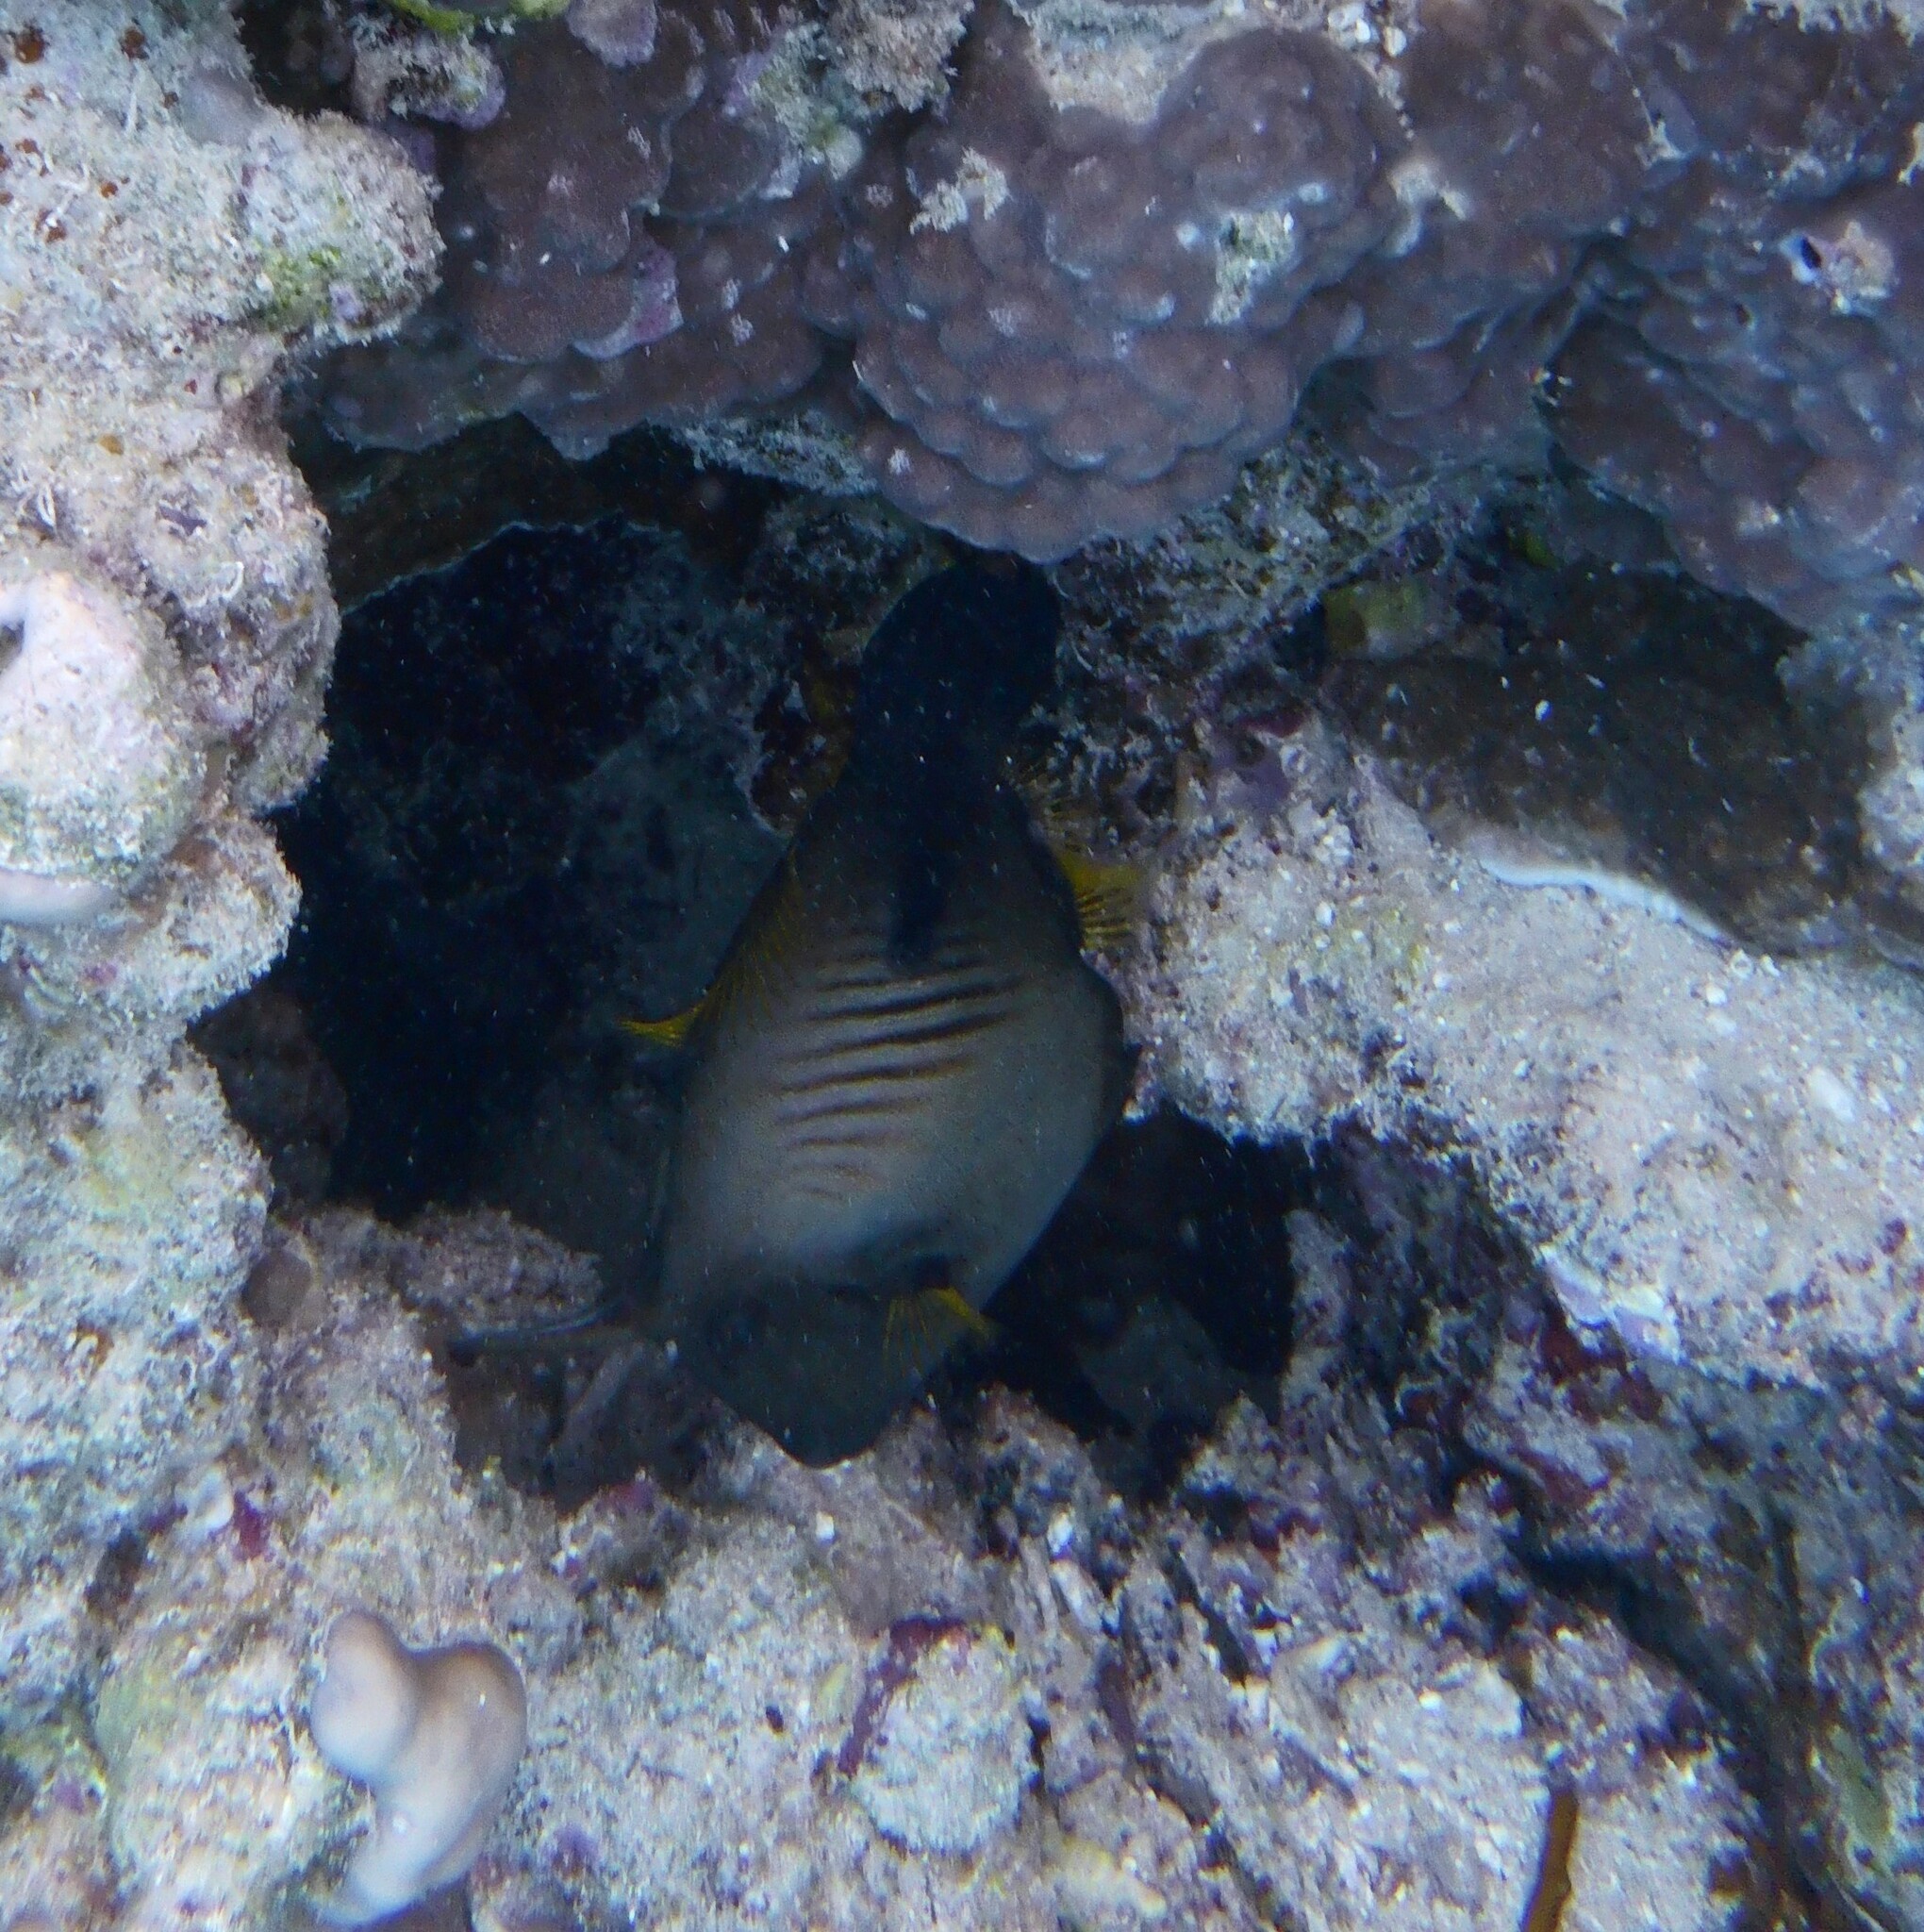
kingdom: Animalia
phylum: Chordata
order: Tetraodontiformes
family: Monacanthidae
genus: Amanses
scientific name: Amanses scopas
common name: Broom filefish
